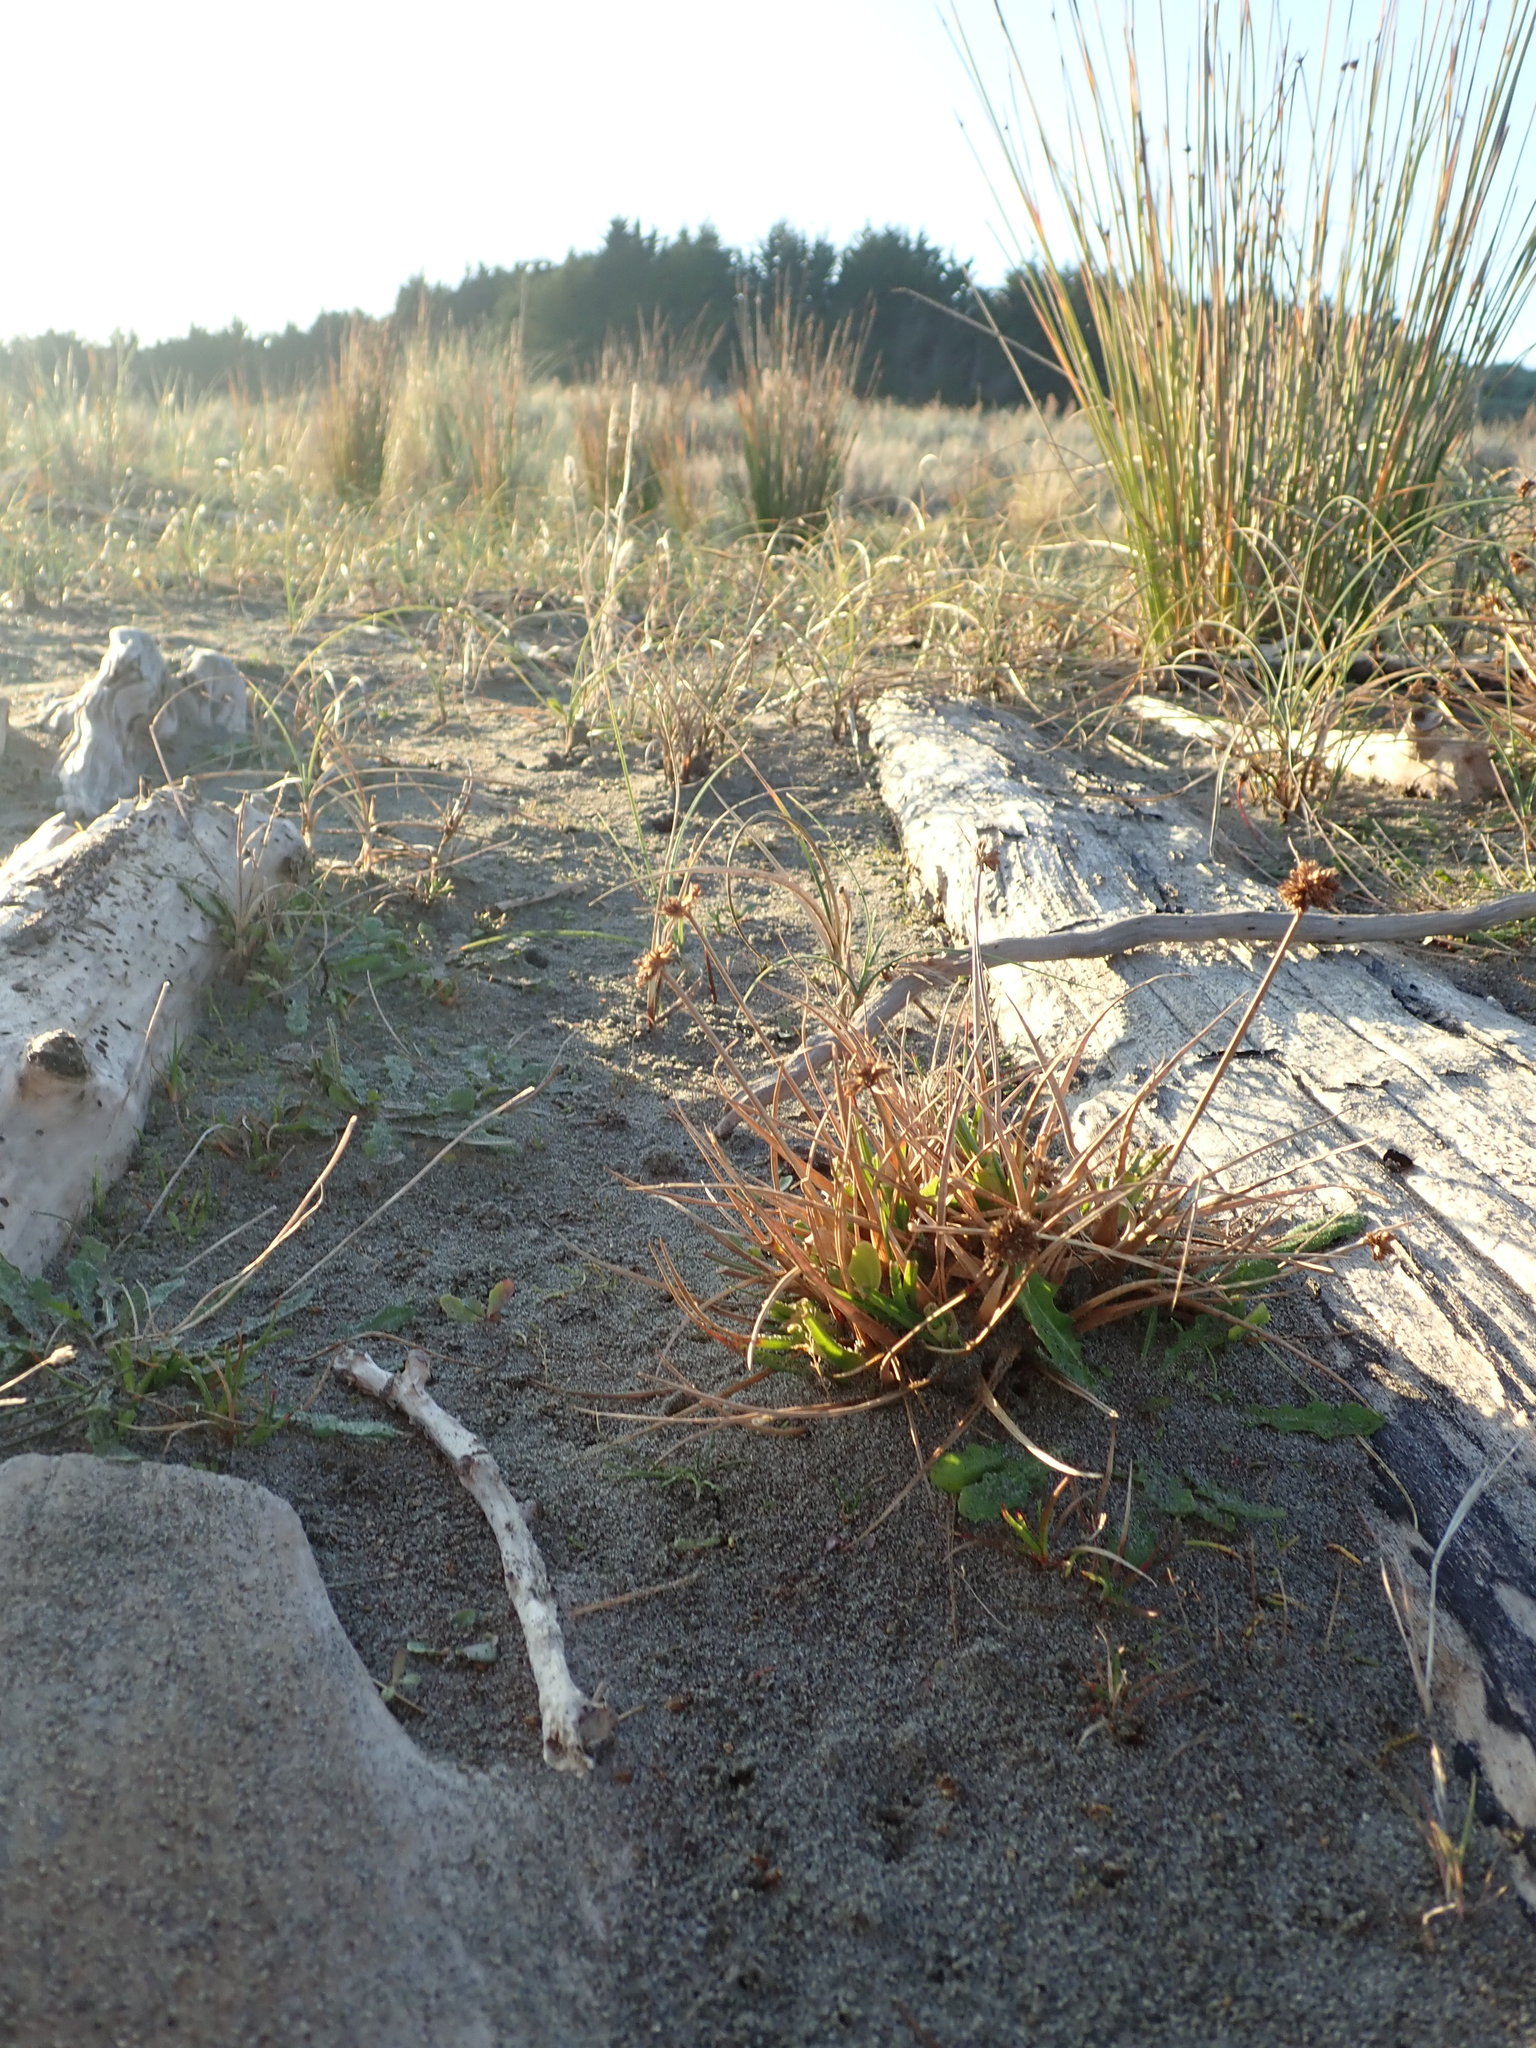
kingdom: Plantae
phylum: Tracheophyta
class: Liliopsida
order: Poales
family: Juncaceae
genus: Juncus
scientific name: Juncus caespiticius
